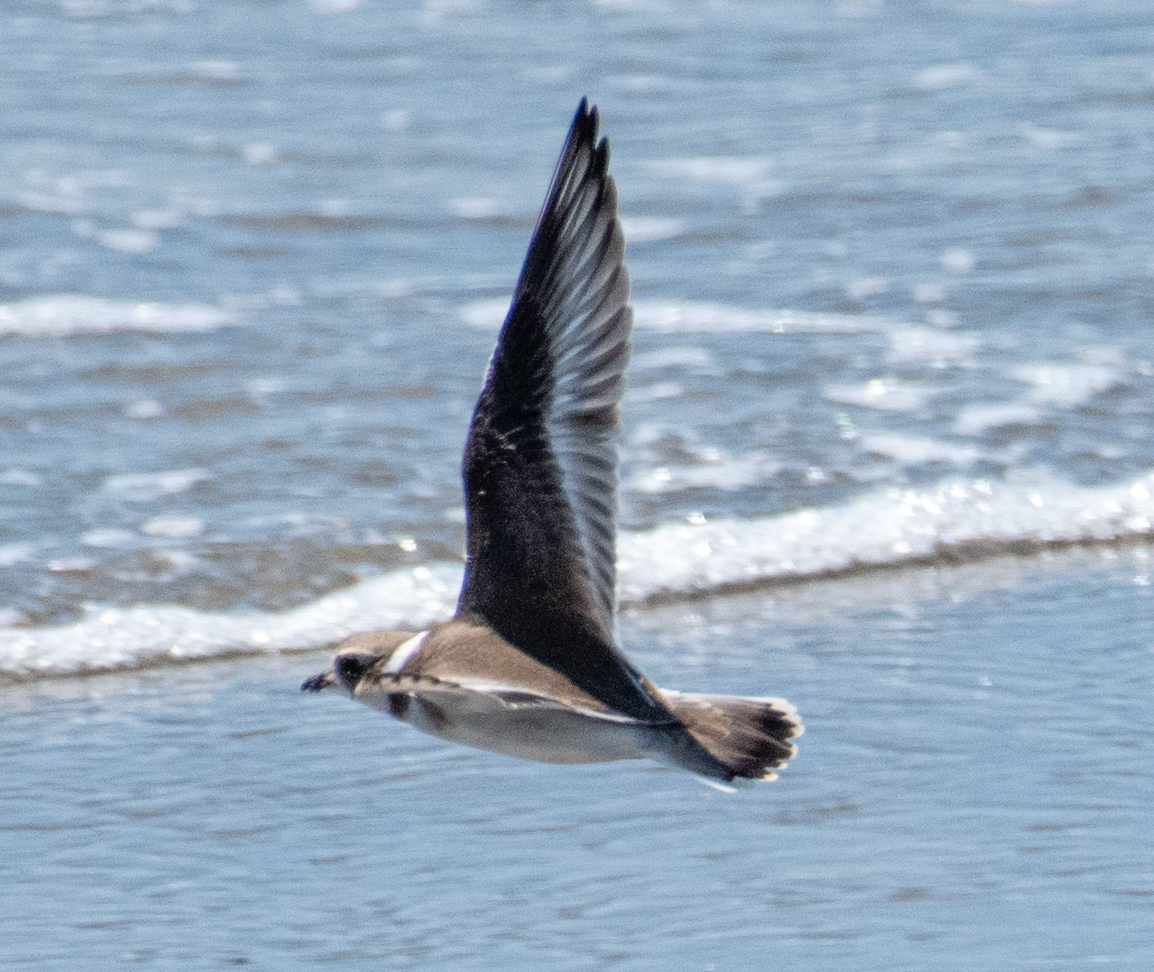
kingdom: Animalia
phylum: Chordata
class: Aves
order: Charadriiformes
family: Charadriidae
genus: Charadrius
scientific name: Charadrius semipalmatus
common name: Semipalmated plover
